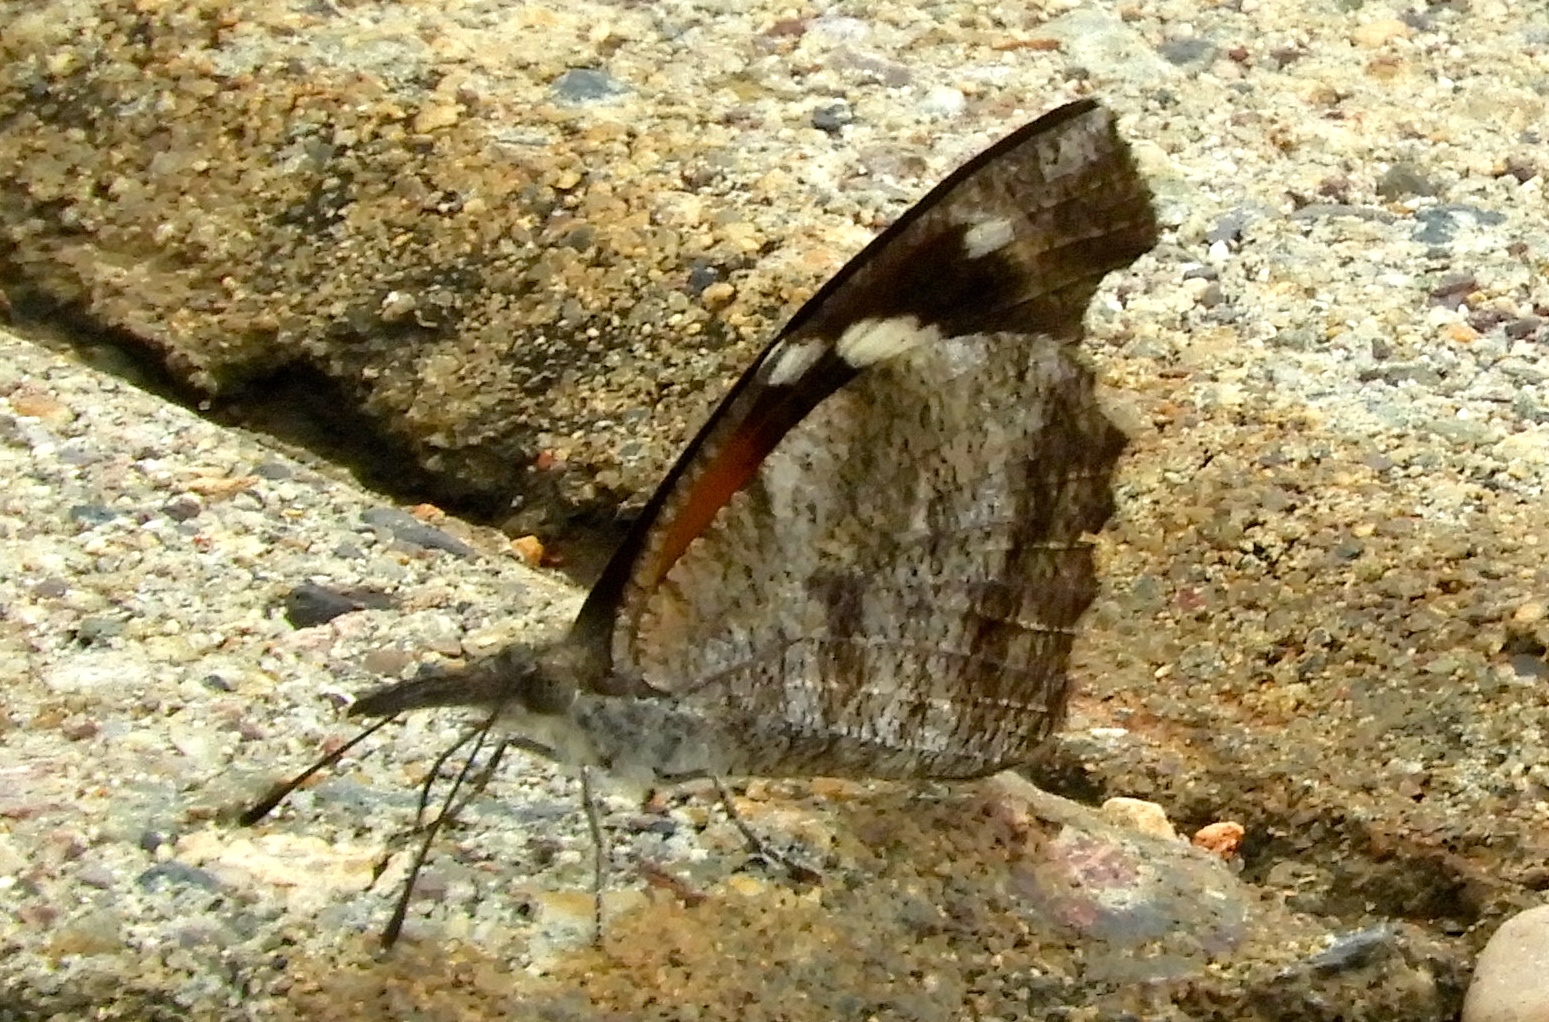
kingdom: Animalia
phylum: Arthropoda
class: Insecta
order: Lepidoptera
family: Nymphalidae
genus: Libytheana
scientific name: Libytheana carinenta
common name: American snout
